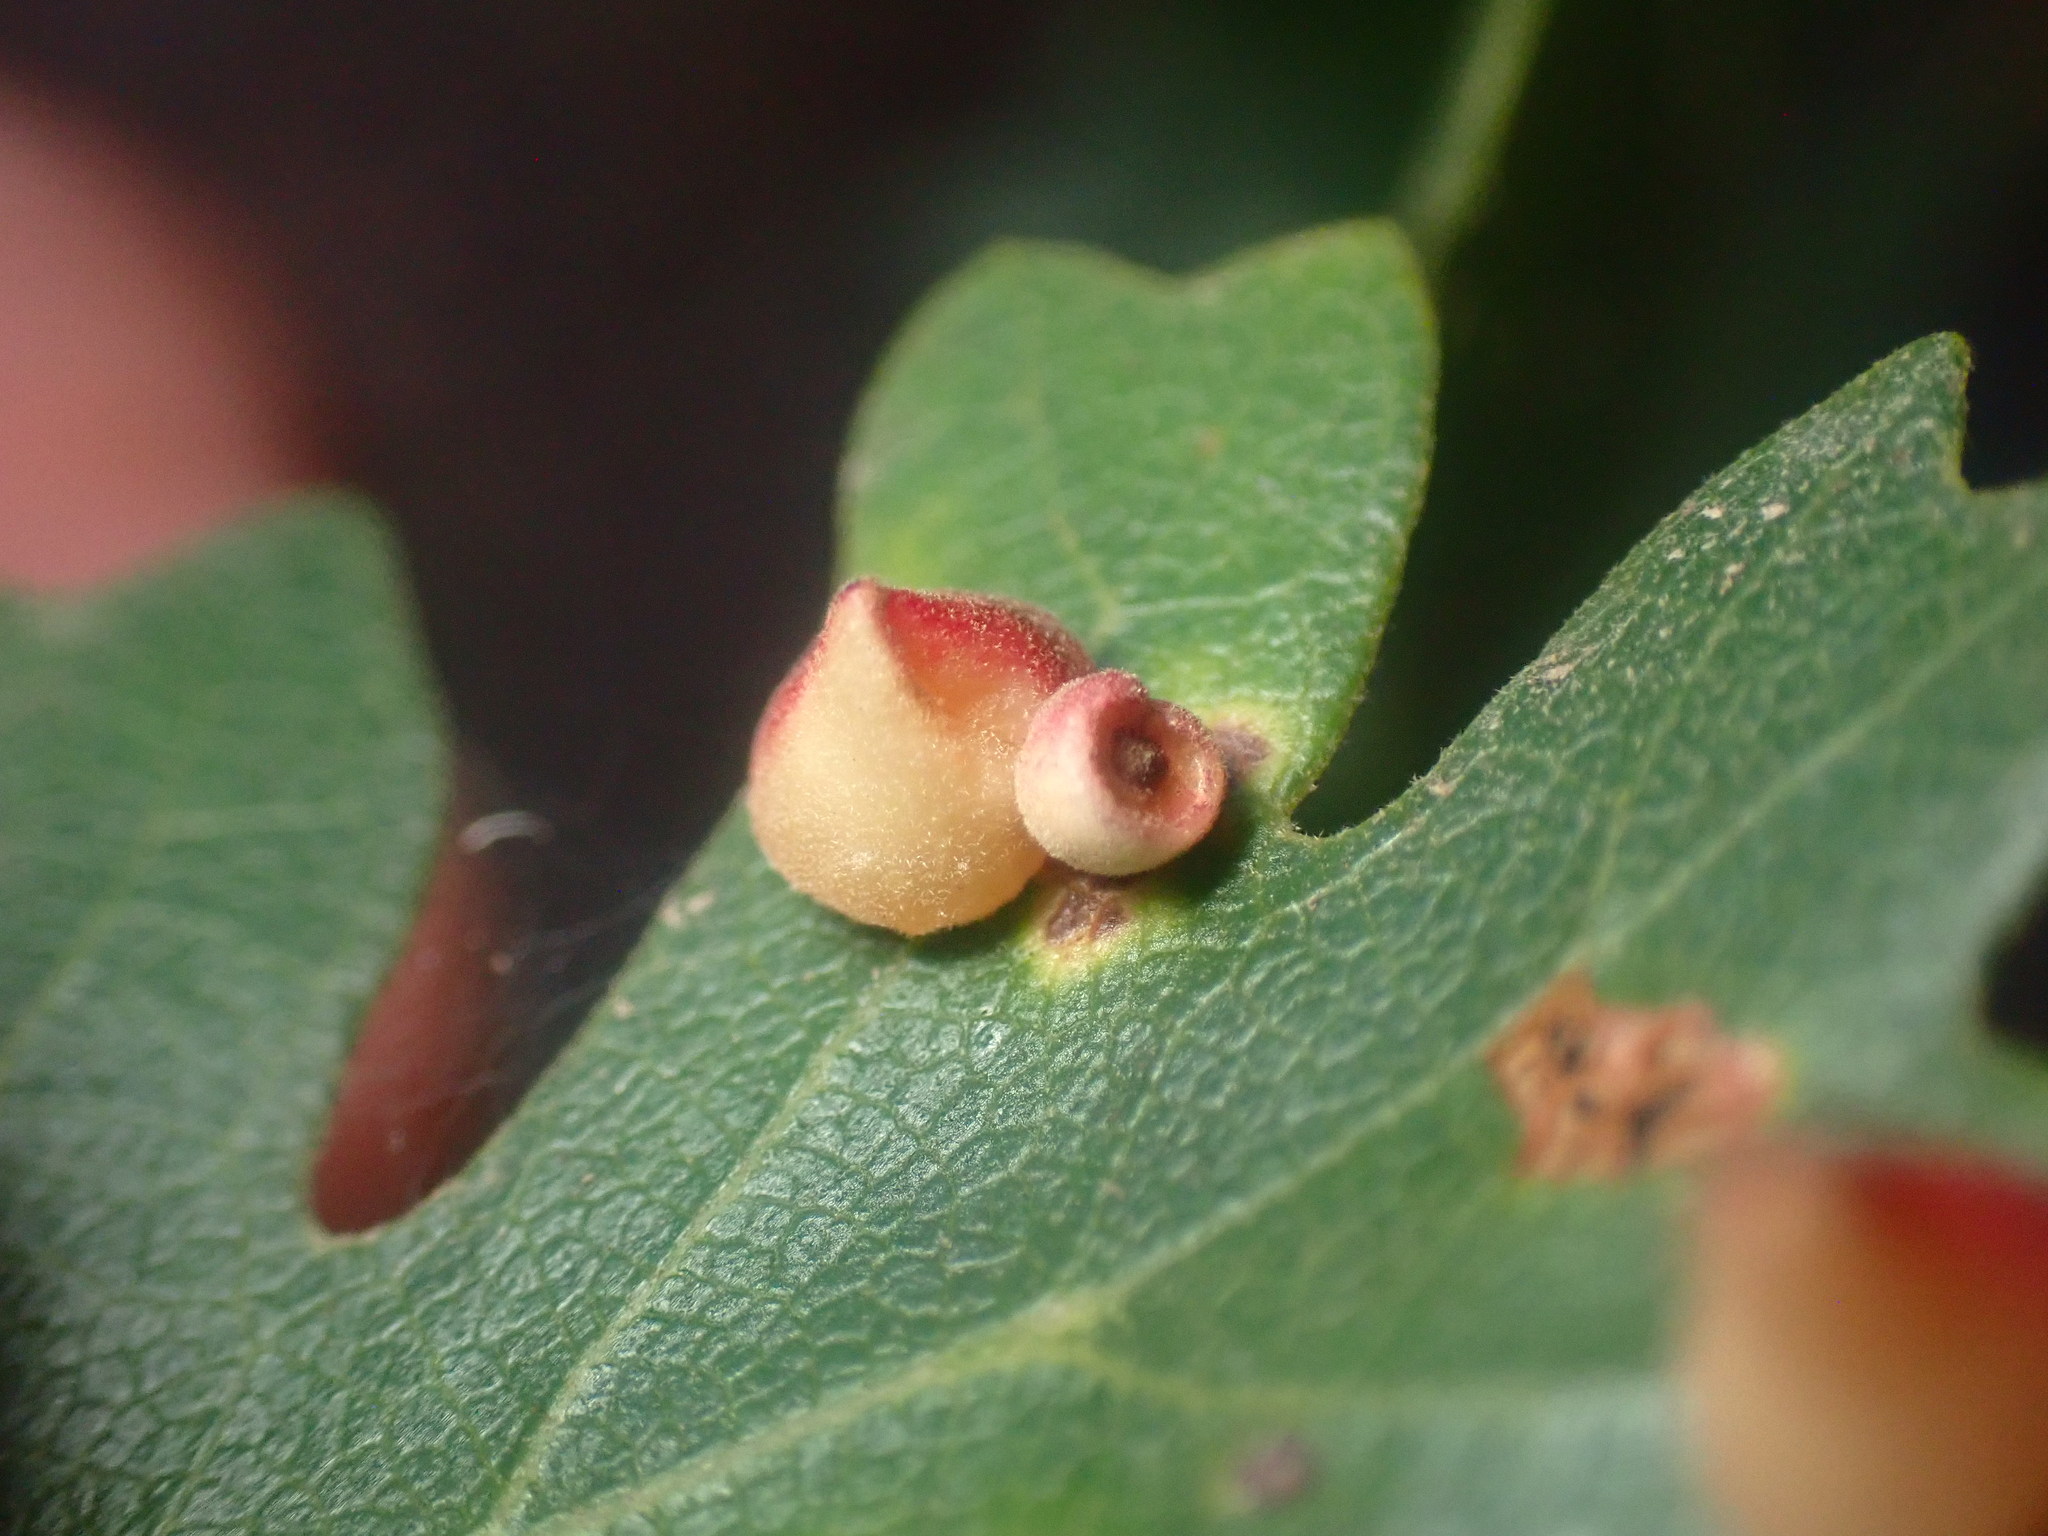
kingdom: Animalia
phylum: Arthropoda
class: Insecta
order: Hymenoptera
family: Cynipidae
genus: Andricus
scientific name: Andricus
